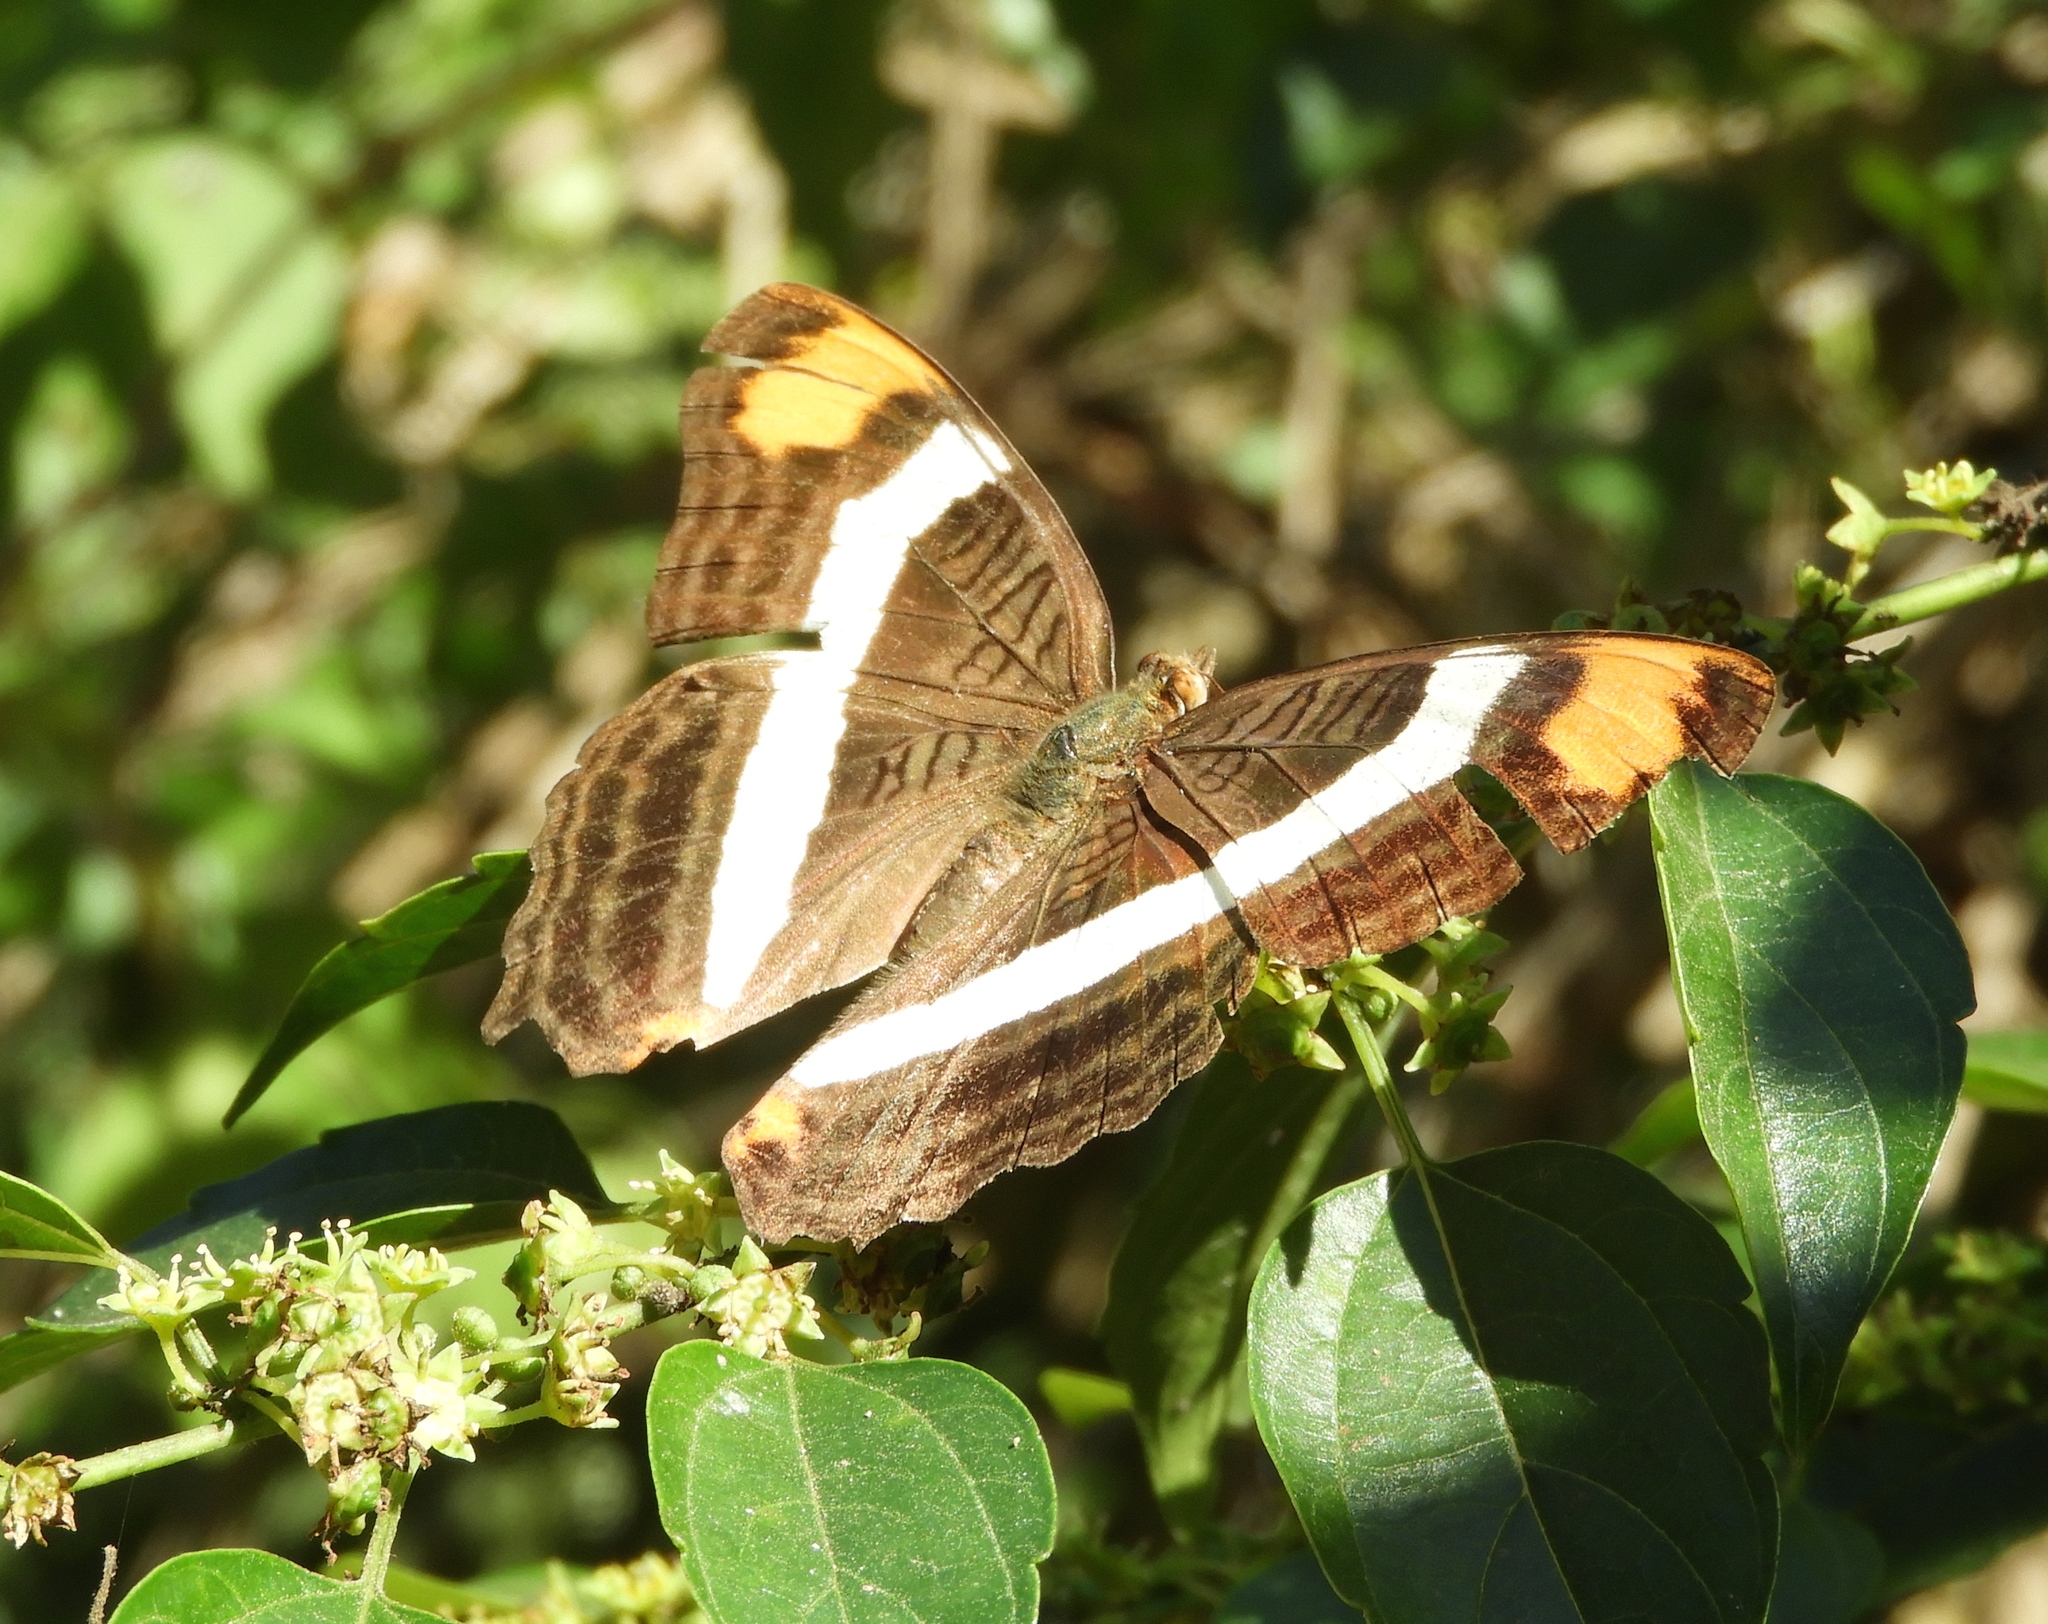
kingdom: Animalia
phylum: Arthropoda
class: Insecta
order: Lepidoptera
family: Nymphalidae
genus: Limenitis
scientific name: Limenitis fessonia
